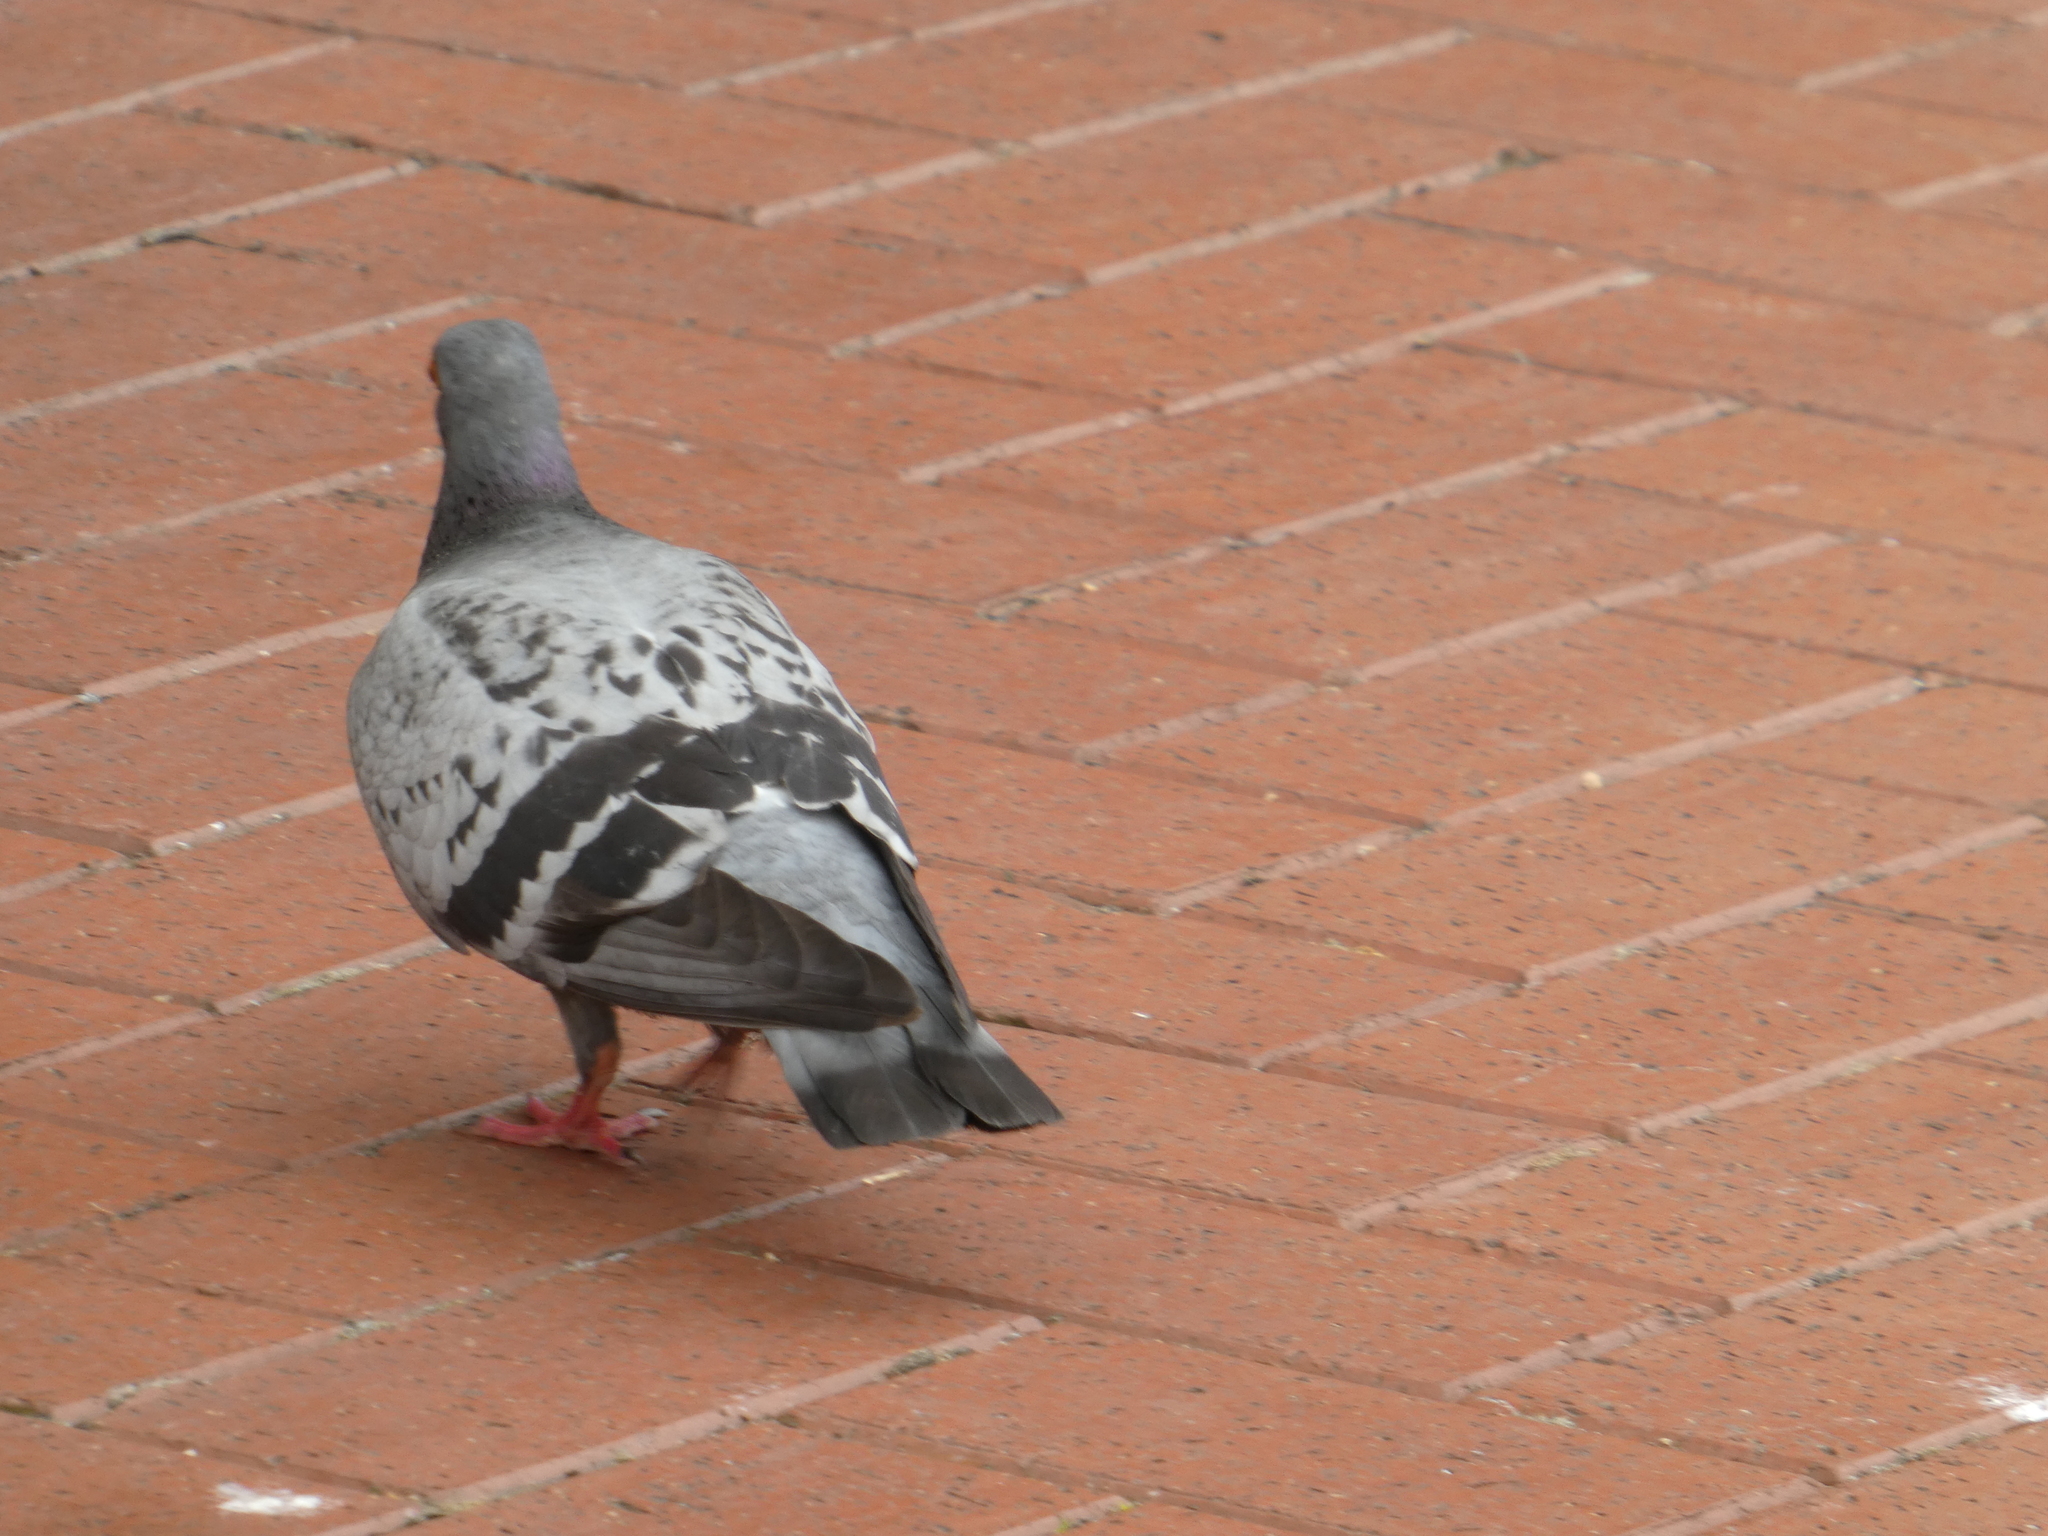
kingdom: Animalia
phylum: Chordata
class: Aves
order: Columbiformes
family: Columbidae
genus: Columba
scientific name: Columba livia
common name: Rock pigeon
